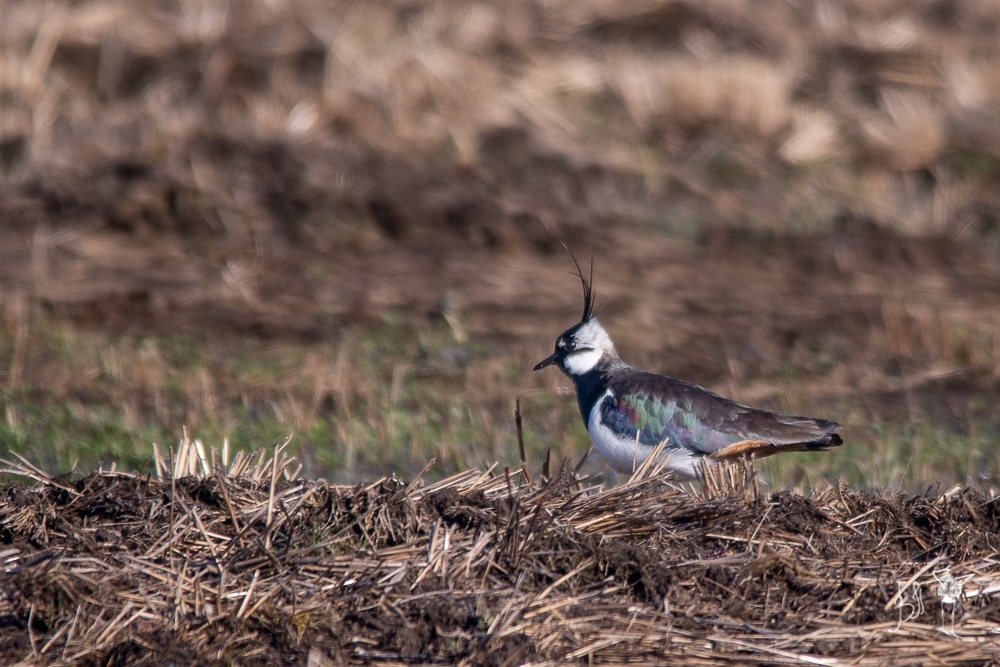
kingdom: Animalia
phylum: Chordata
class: Aves
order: Charadriiformes
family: Charadriidae
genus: Vanellus
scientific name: Vanellus vanellus
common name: Northern lapwing
